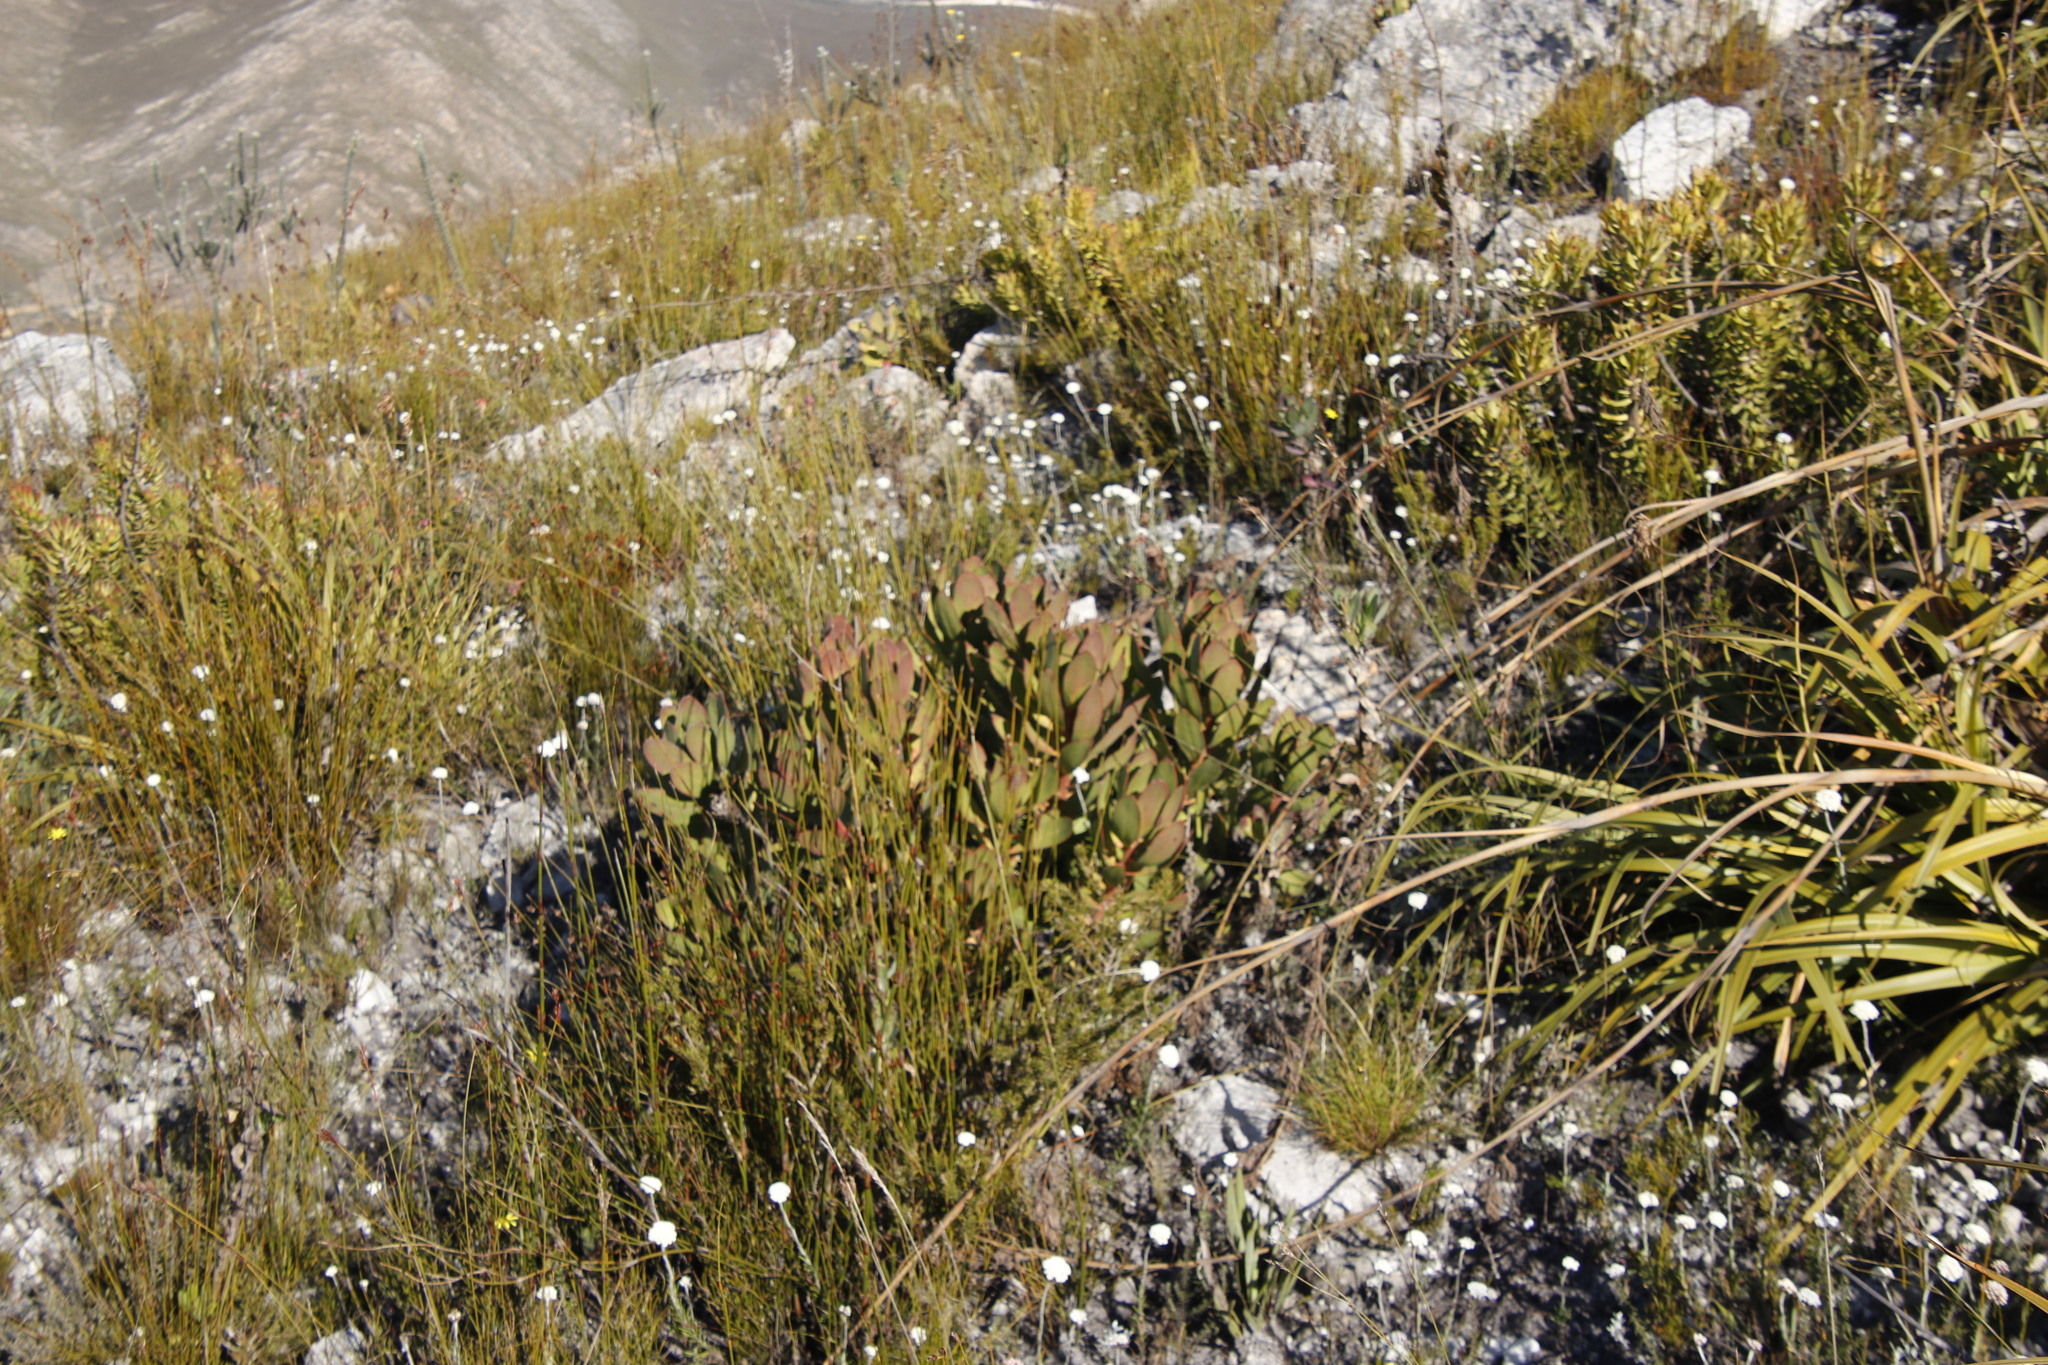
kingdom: Plantae
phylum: Tracheophyta
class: Magnoliopsida
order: Proteales
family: Proteaceae
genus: Protea
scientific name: Protea speciosa
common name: Brown-beard sugarbush
